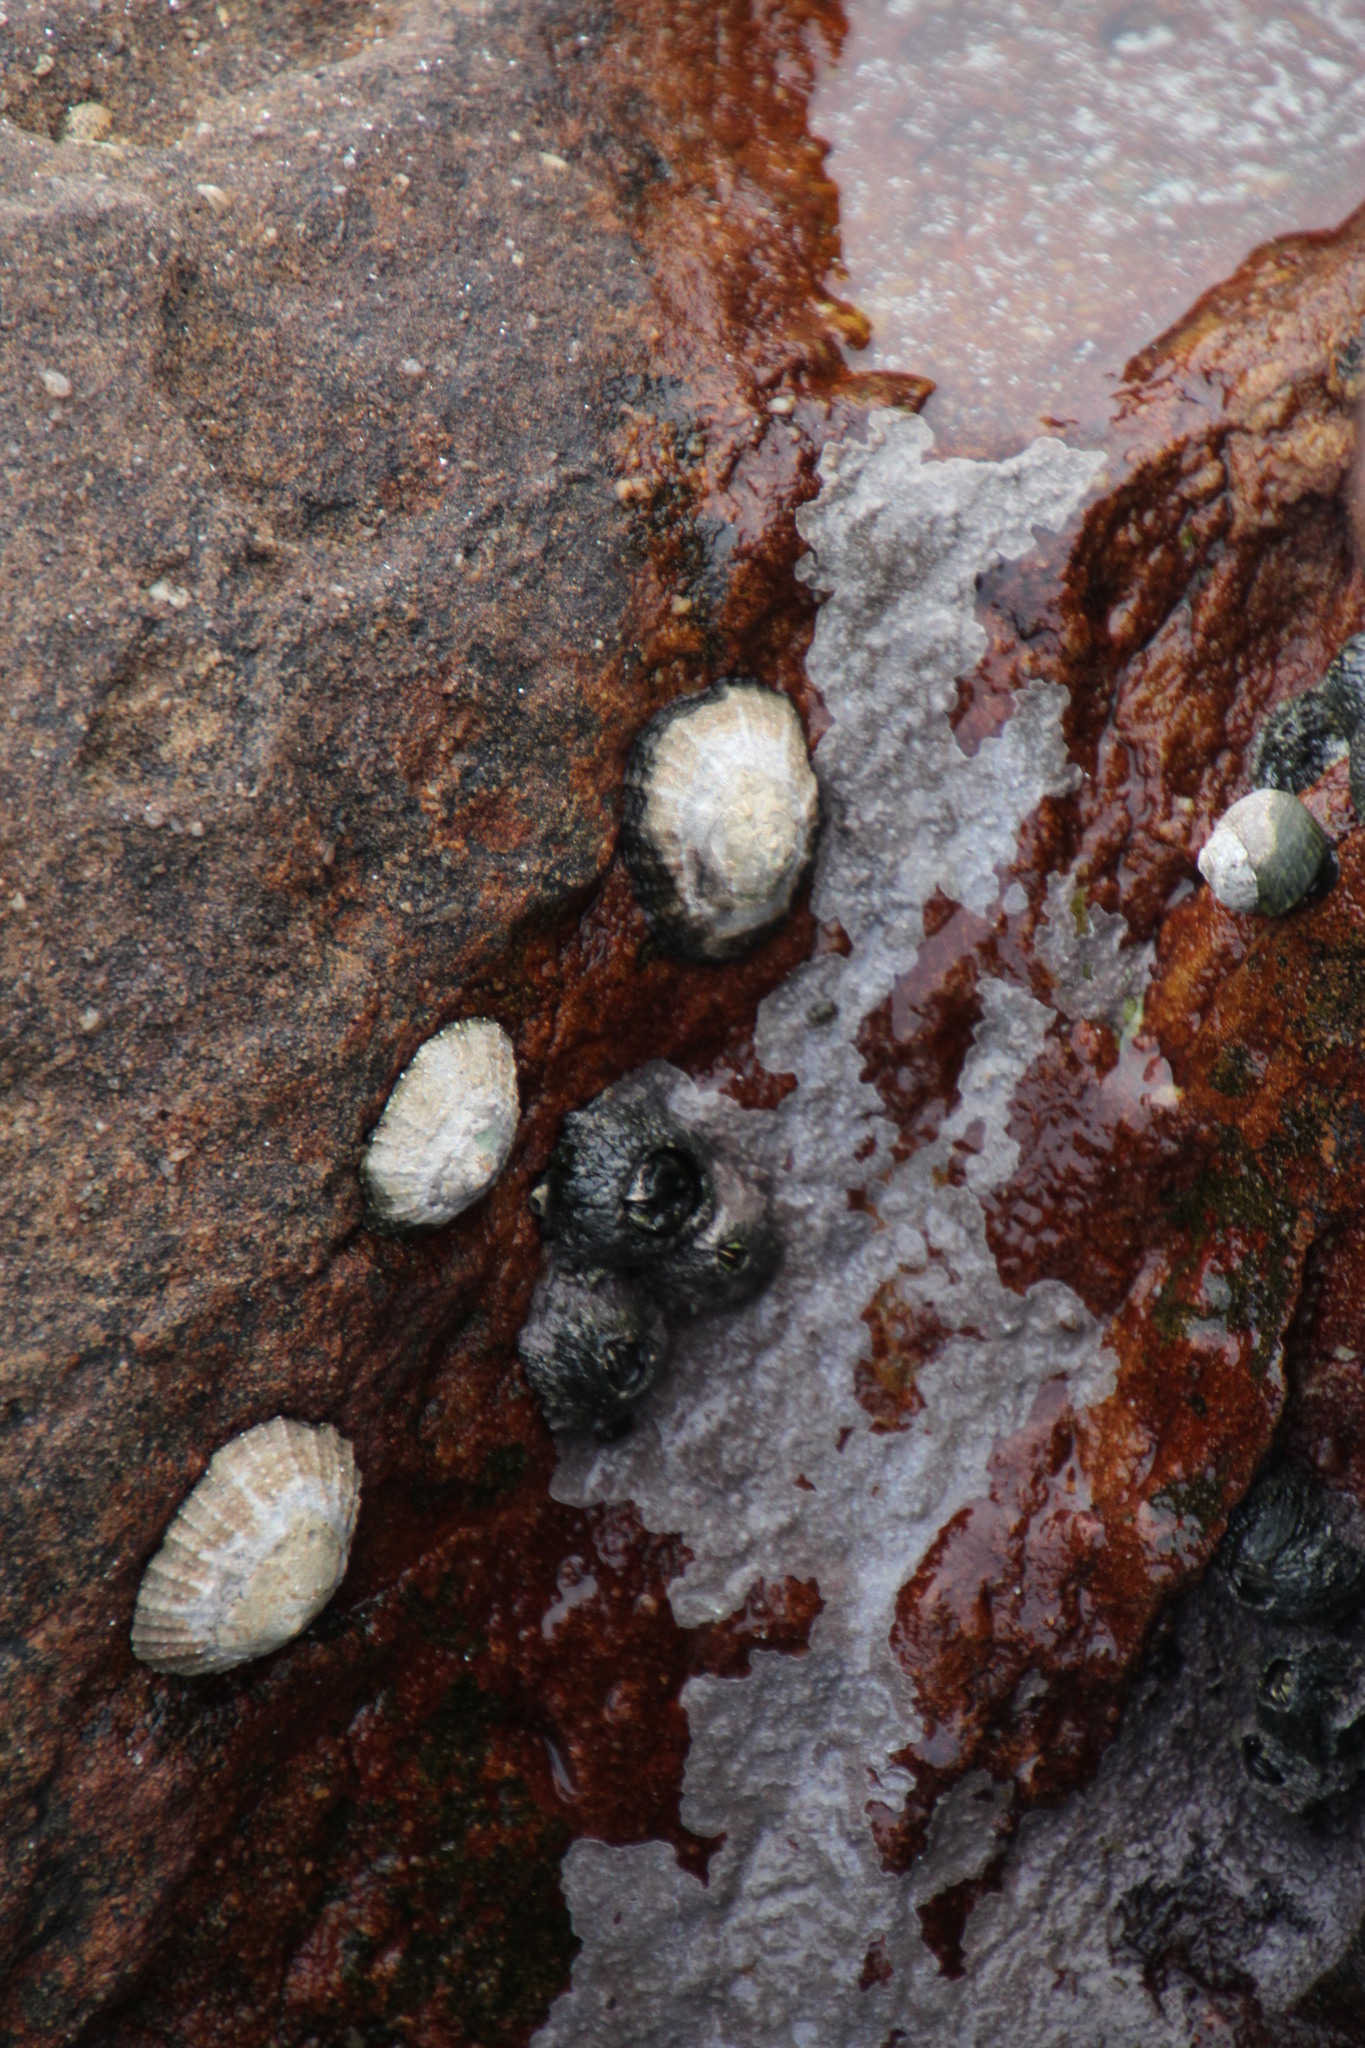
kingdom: Animalia
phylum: Mollusca
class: Gastropoda
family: Patellidae
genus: Scutellastra
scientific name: Scutellastra granularis
